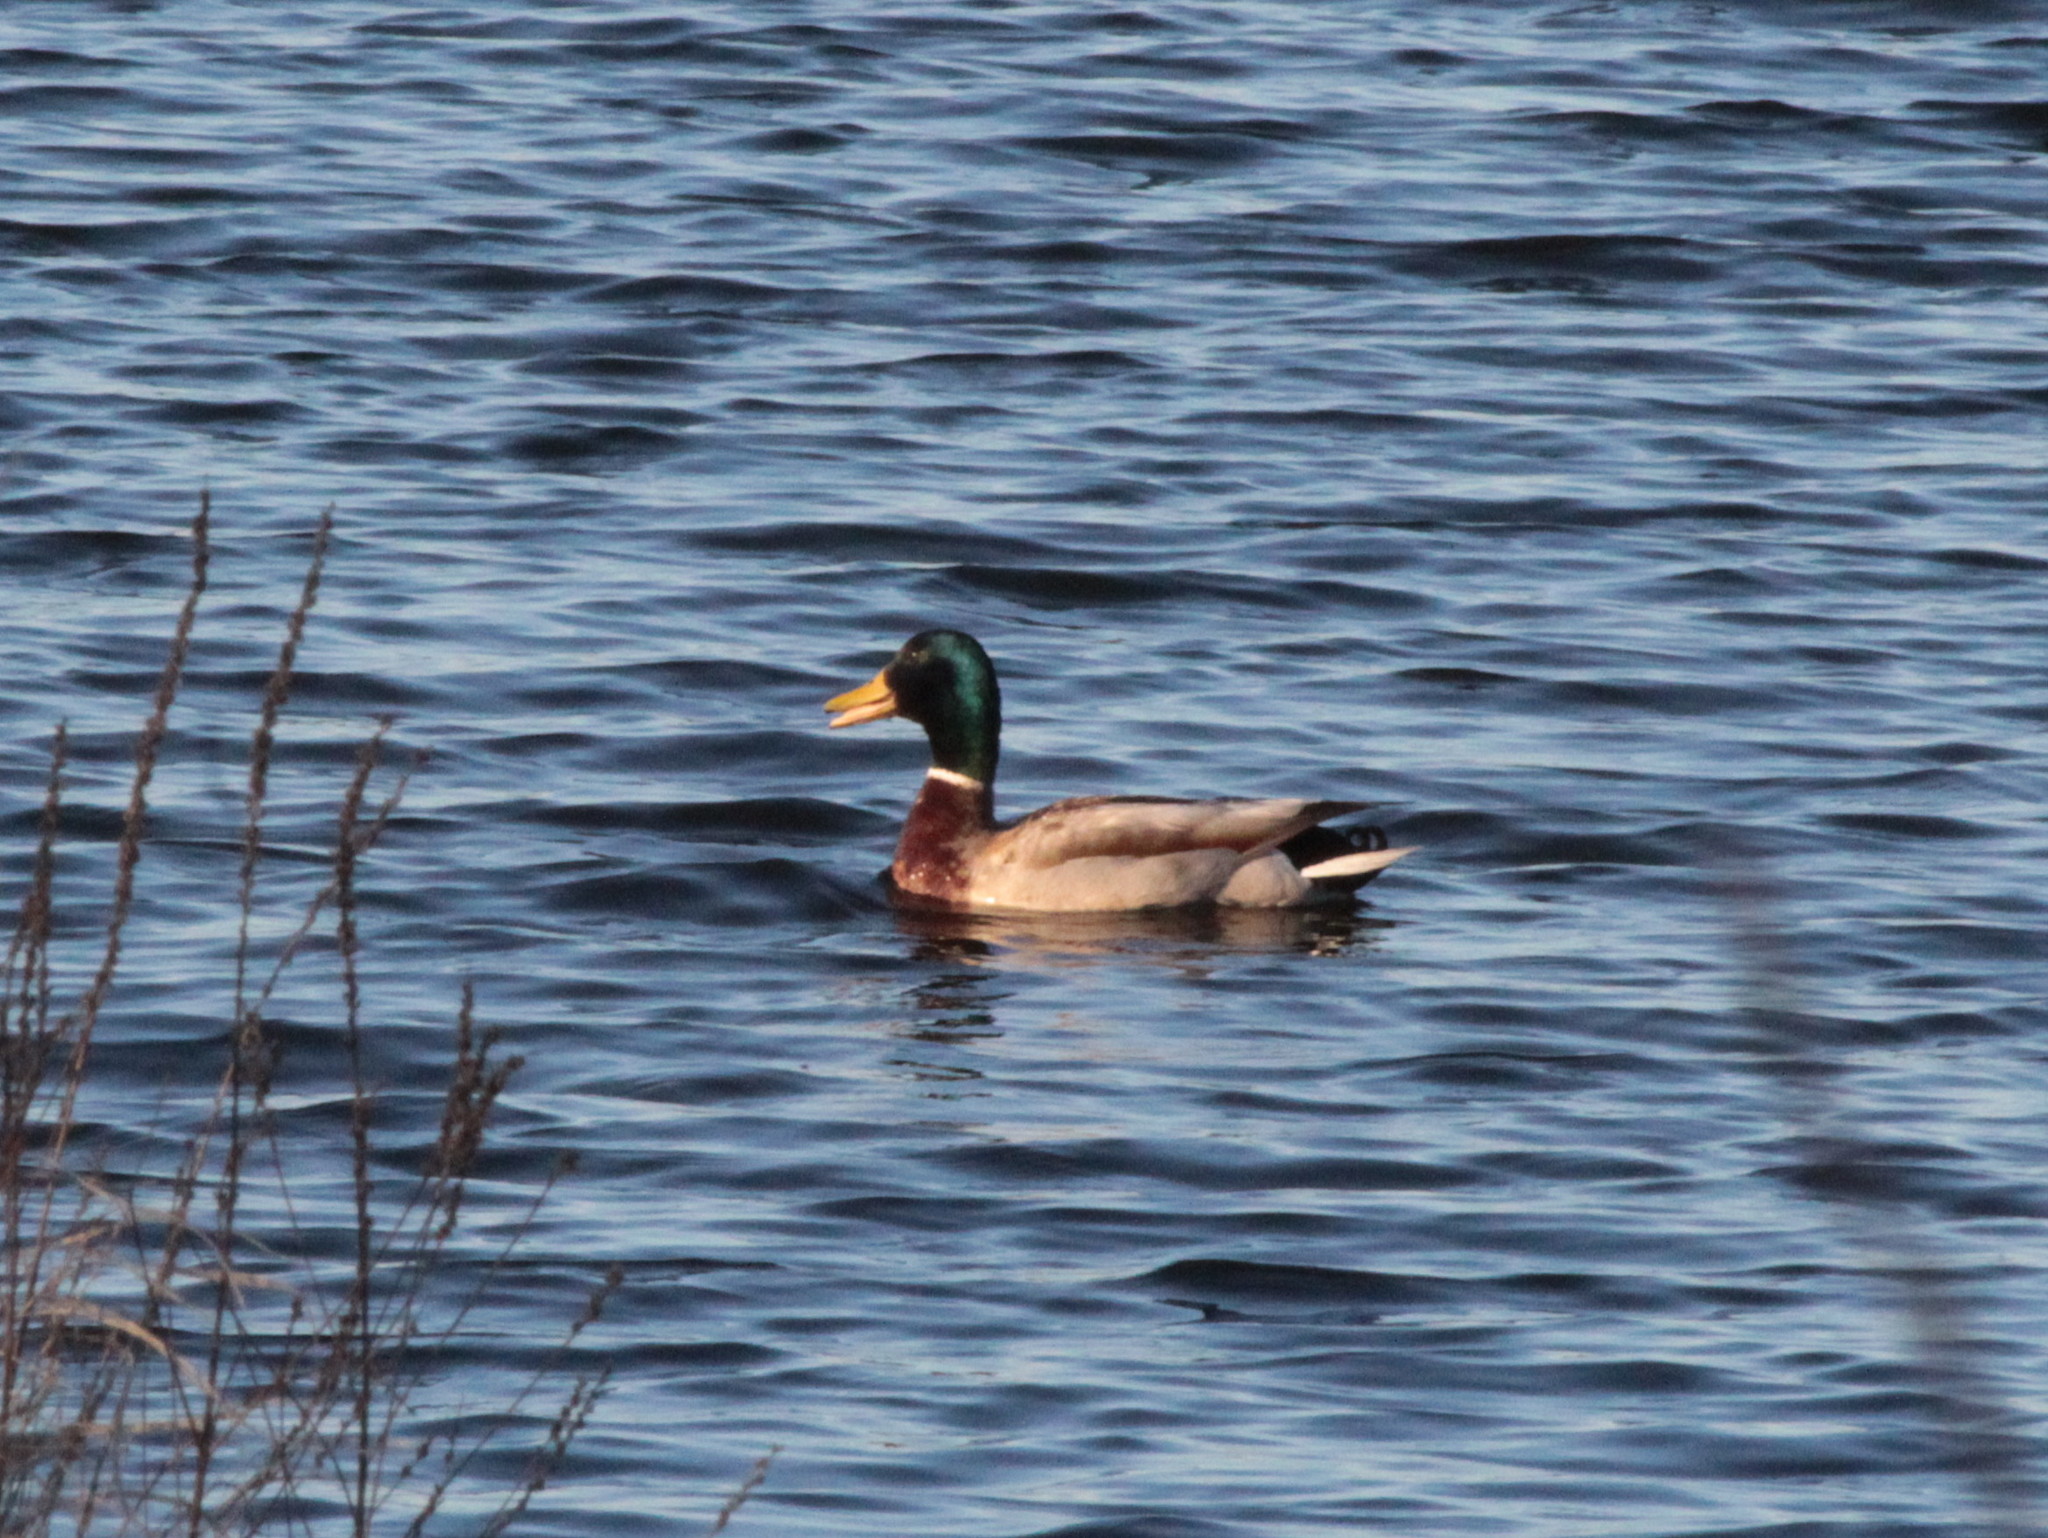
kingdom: Animalia
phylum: Chordata
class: Aves
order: Anseriformes
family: Anatidae
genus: Anas
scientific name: Anas platyrhynchos
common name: Mallard
